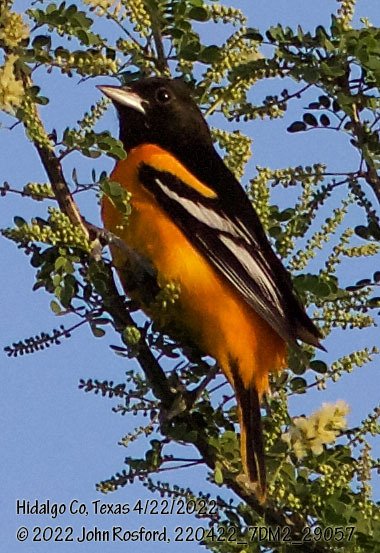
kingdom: Animalia
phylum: Chordata
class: Aves
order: Passeriformes
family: Icteridae
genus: Icterus
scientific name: Icterus galbula
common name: Baltimore oriole
